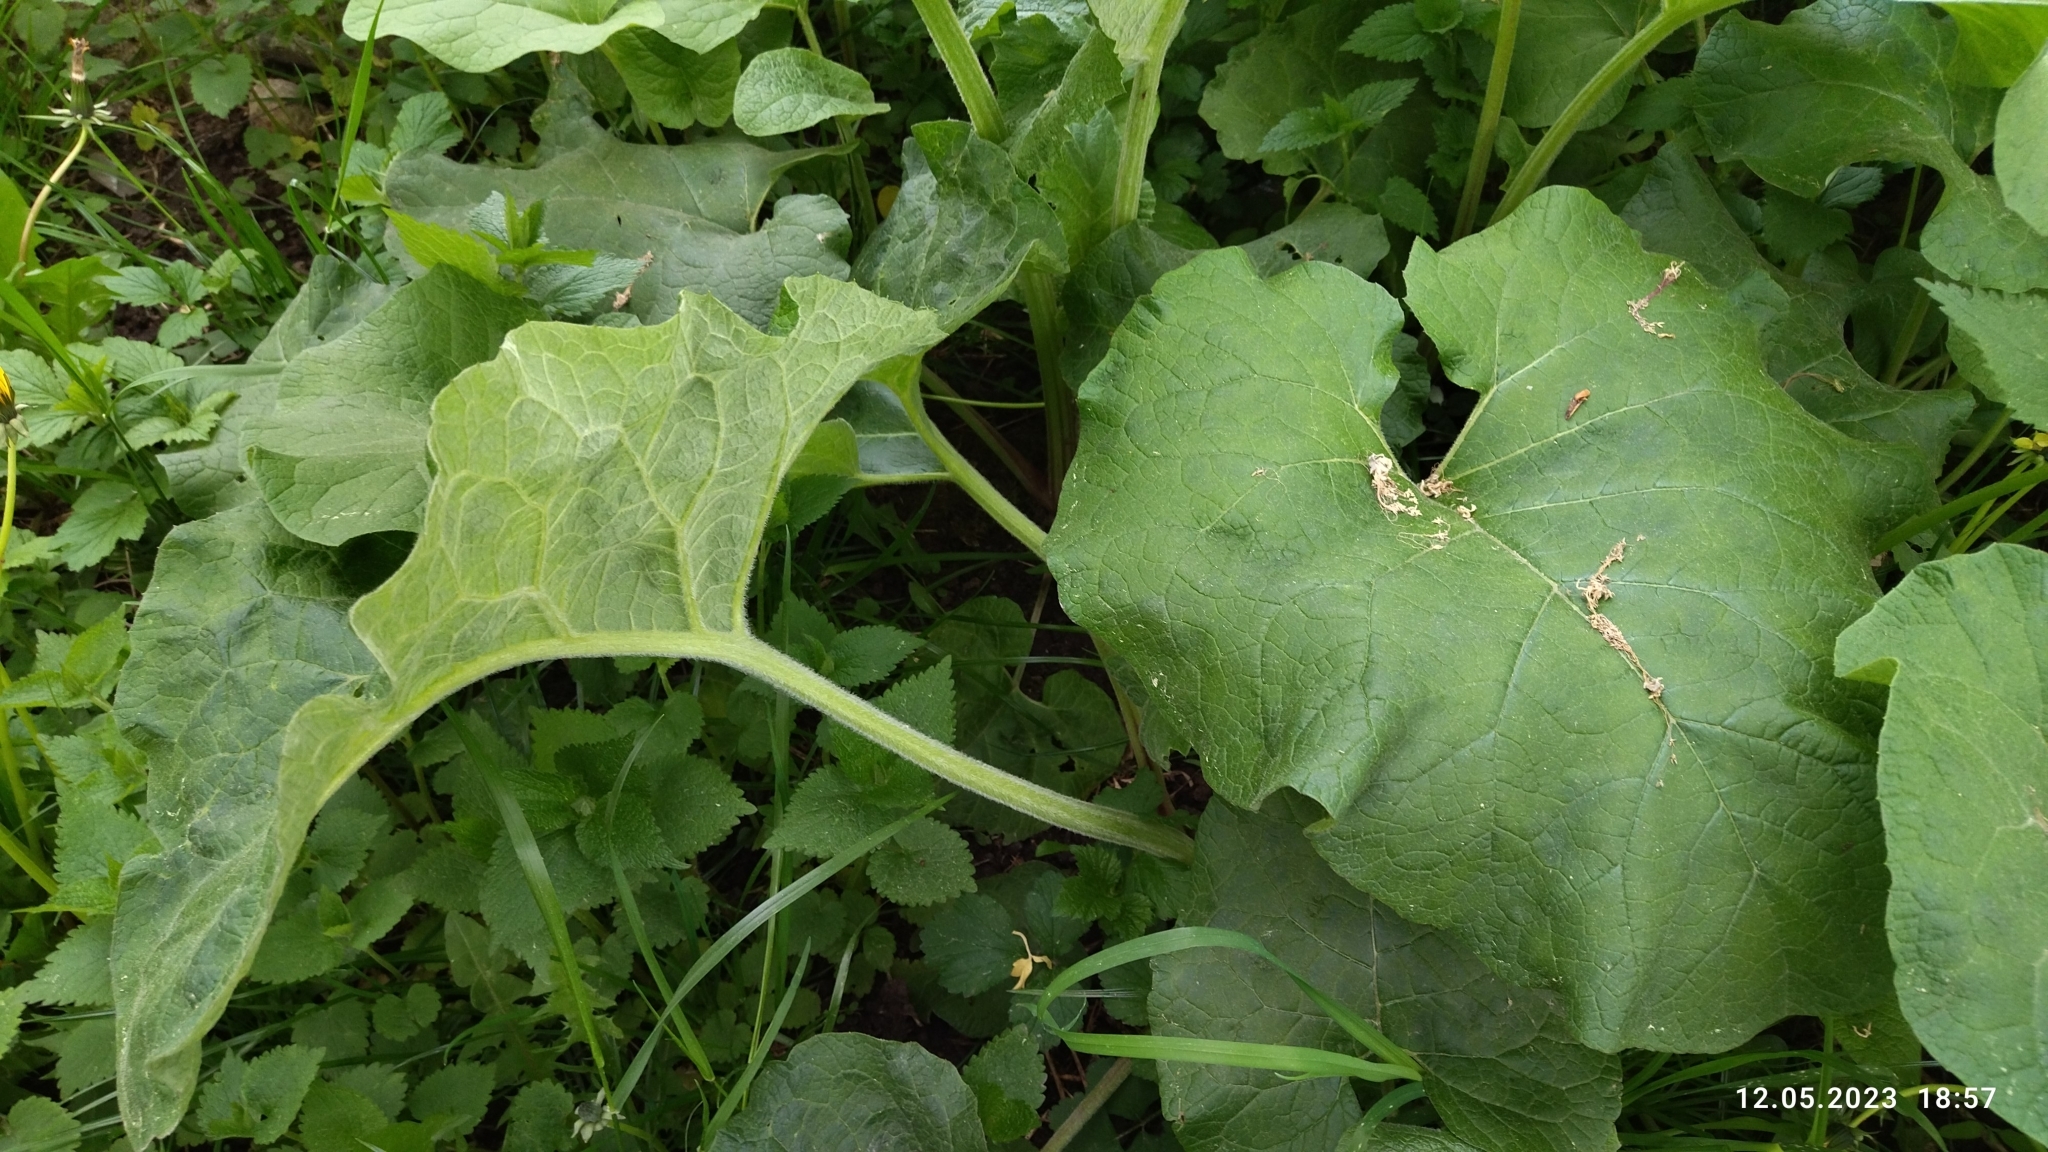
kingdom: Plantae
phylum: Tracheophyta
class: Magnoliopsida
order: Asterales
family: Asteraceae
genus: Arctium
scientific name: Arctium
